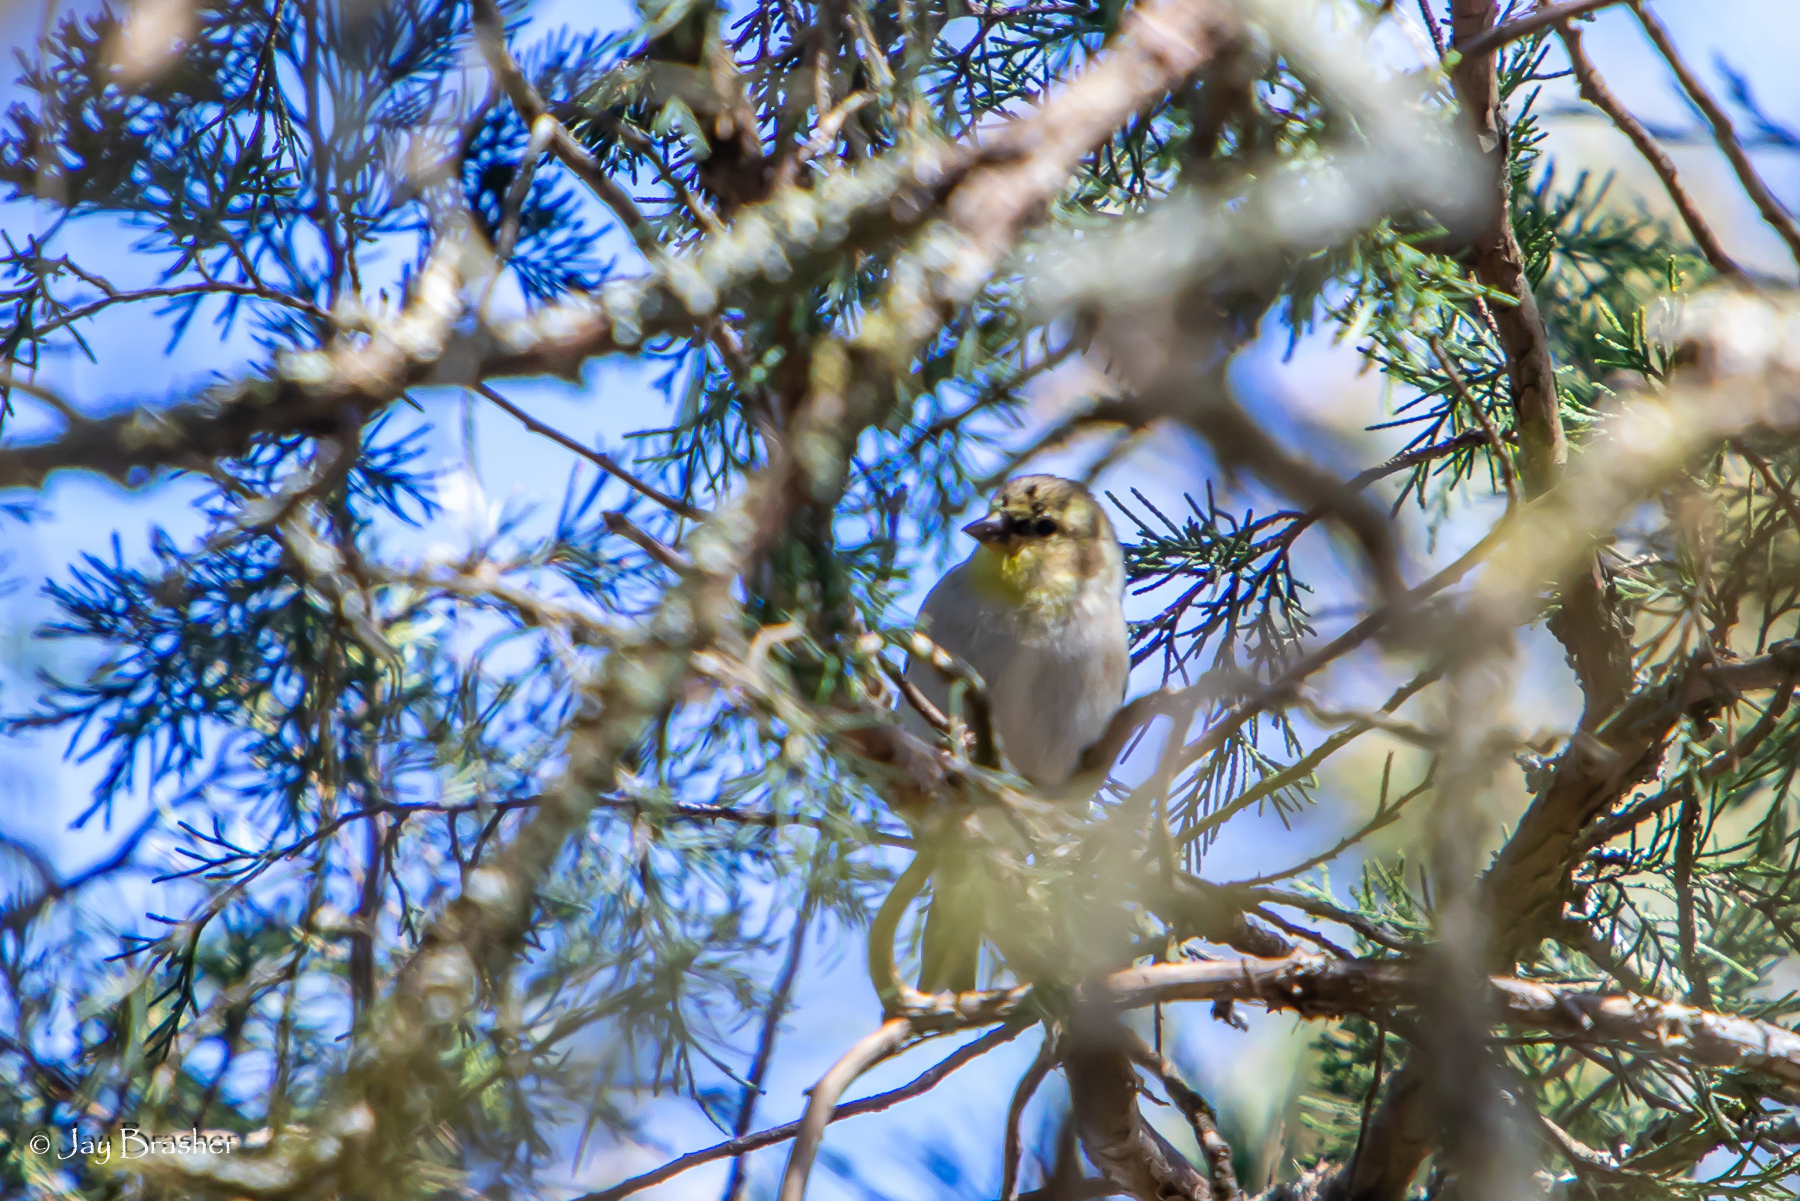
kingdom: Animalia
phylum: Chordata
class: Aves
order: Passeriformes
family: Fringillidae
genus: Spinus
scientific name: Spinus tristis
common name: American goldfinch
